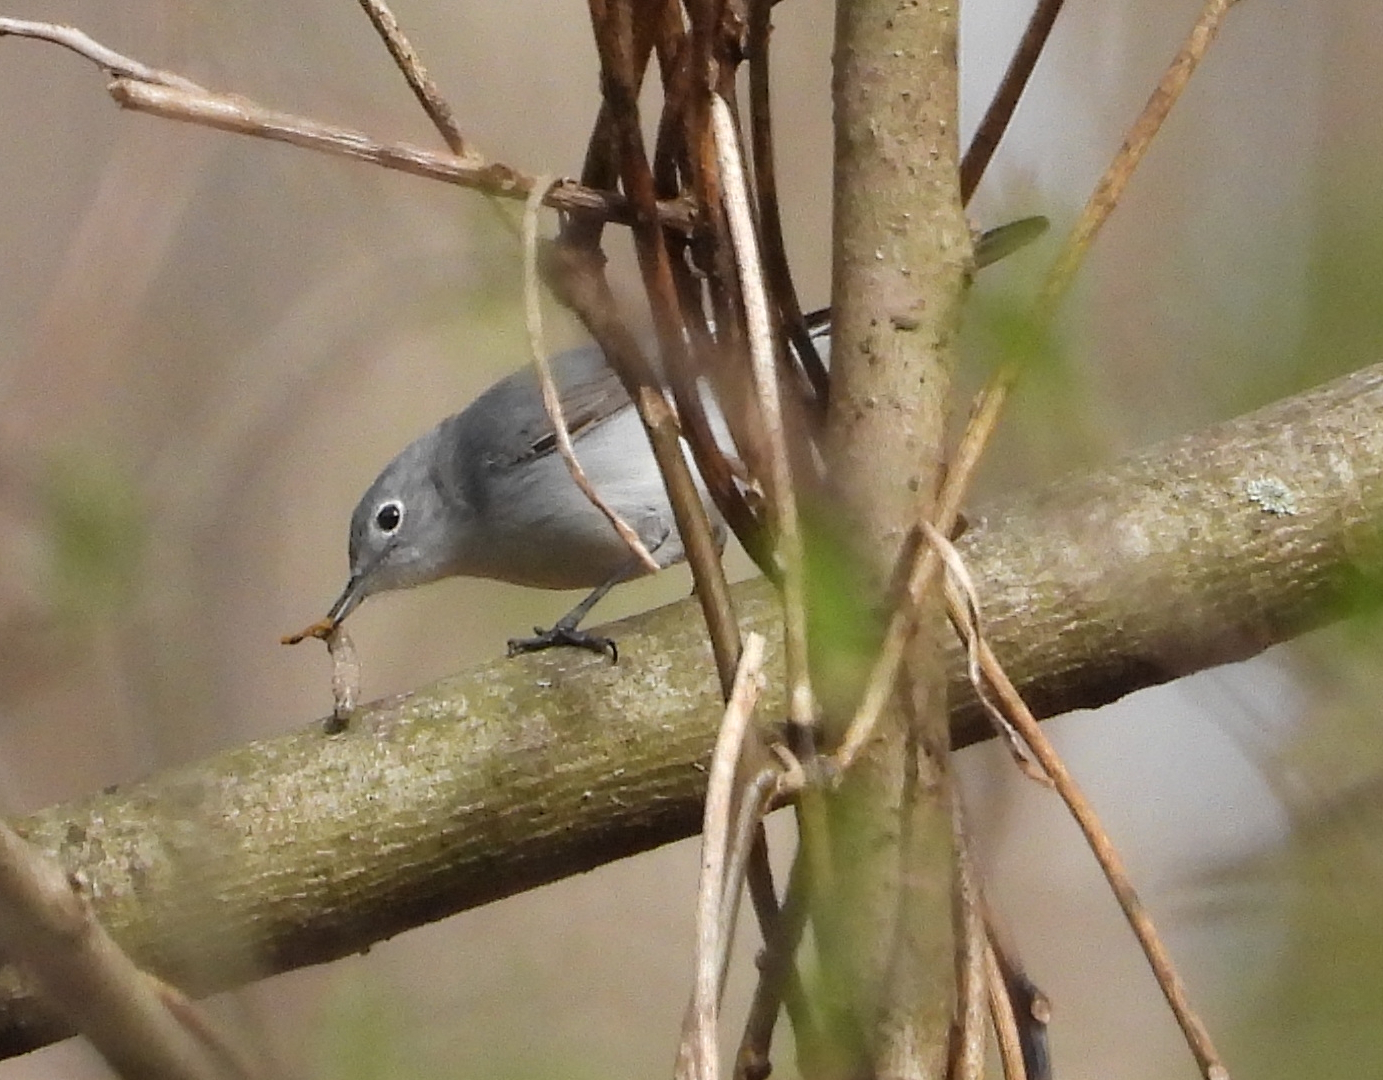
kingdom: Animalia
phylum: Chordata
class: Aves
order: Passeriformes
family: Polioptilidae
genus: Polioptila
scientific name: Polioptila caerulea
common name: Blue-gray gnatcatcher
